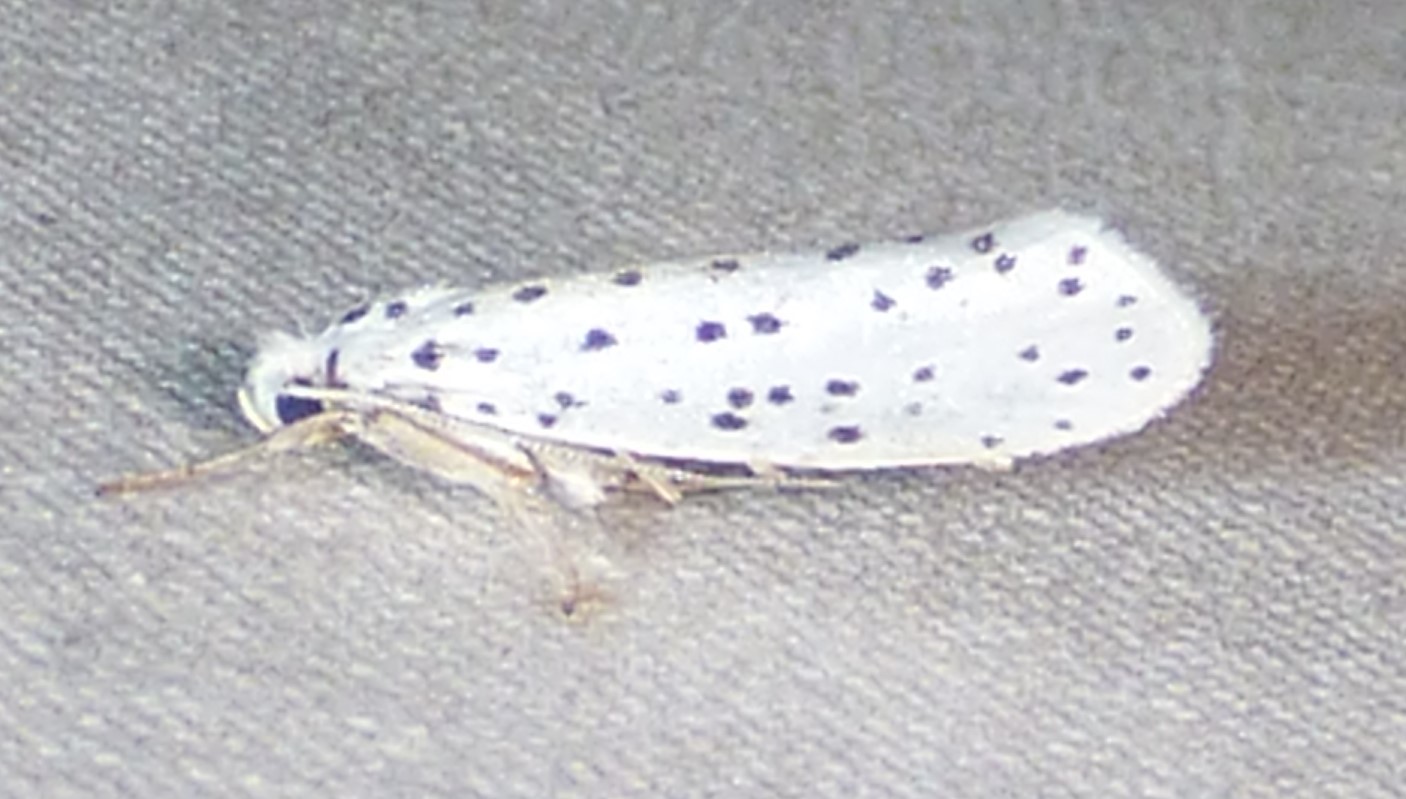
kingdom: Animalia
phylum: Arthropoda
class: Insecta
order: Lepidoptera
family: Yponomeutidae
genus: Yponomeuta
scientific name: Yponomeuta multipunctella
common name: American ermine moth
